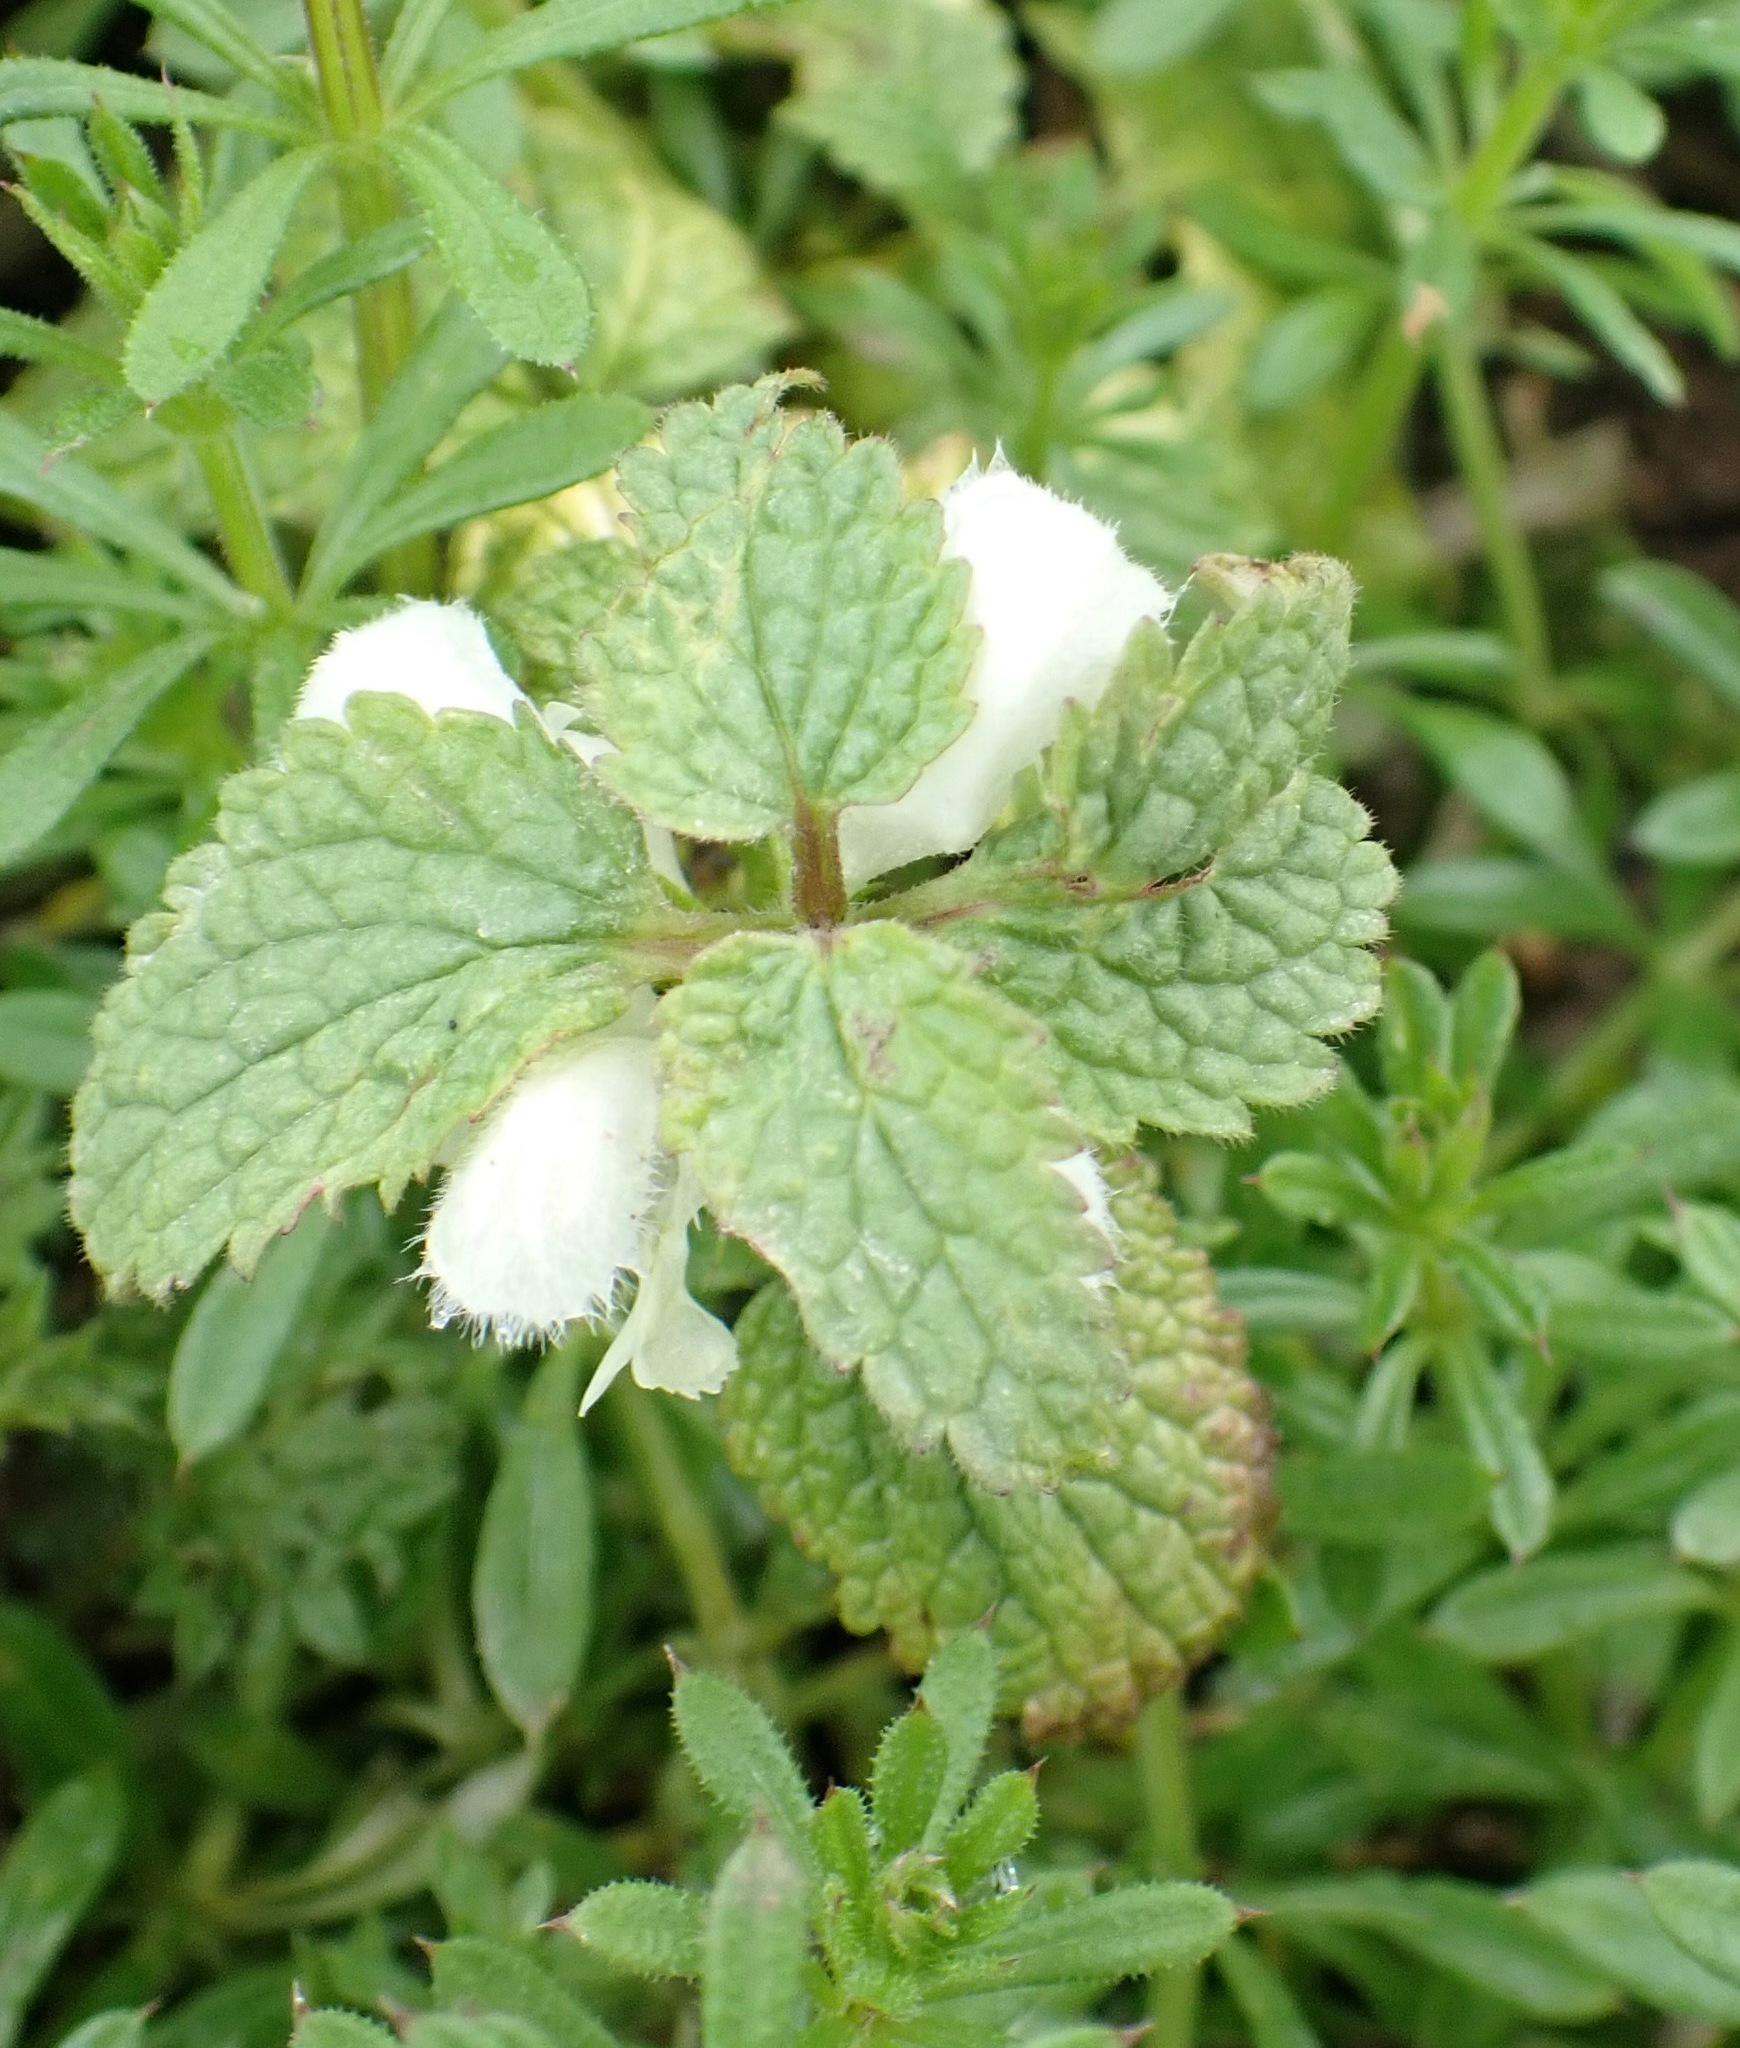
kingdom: Plantae
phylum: Tracheophyta
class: Magnoliopsida
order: Lamiales
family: Lamiaceae
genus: Lamium
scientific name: Lamium album
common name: White dead-nettle
